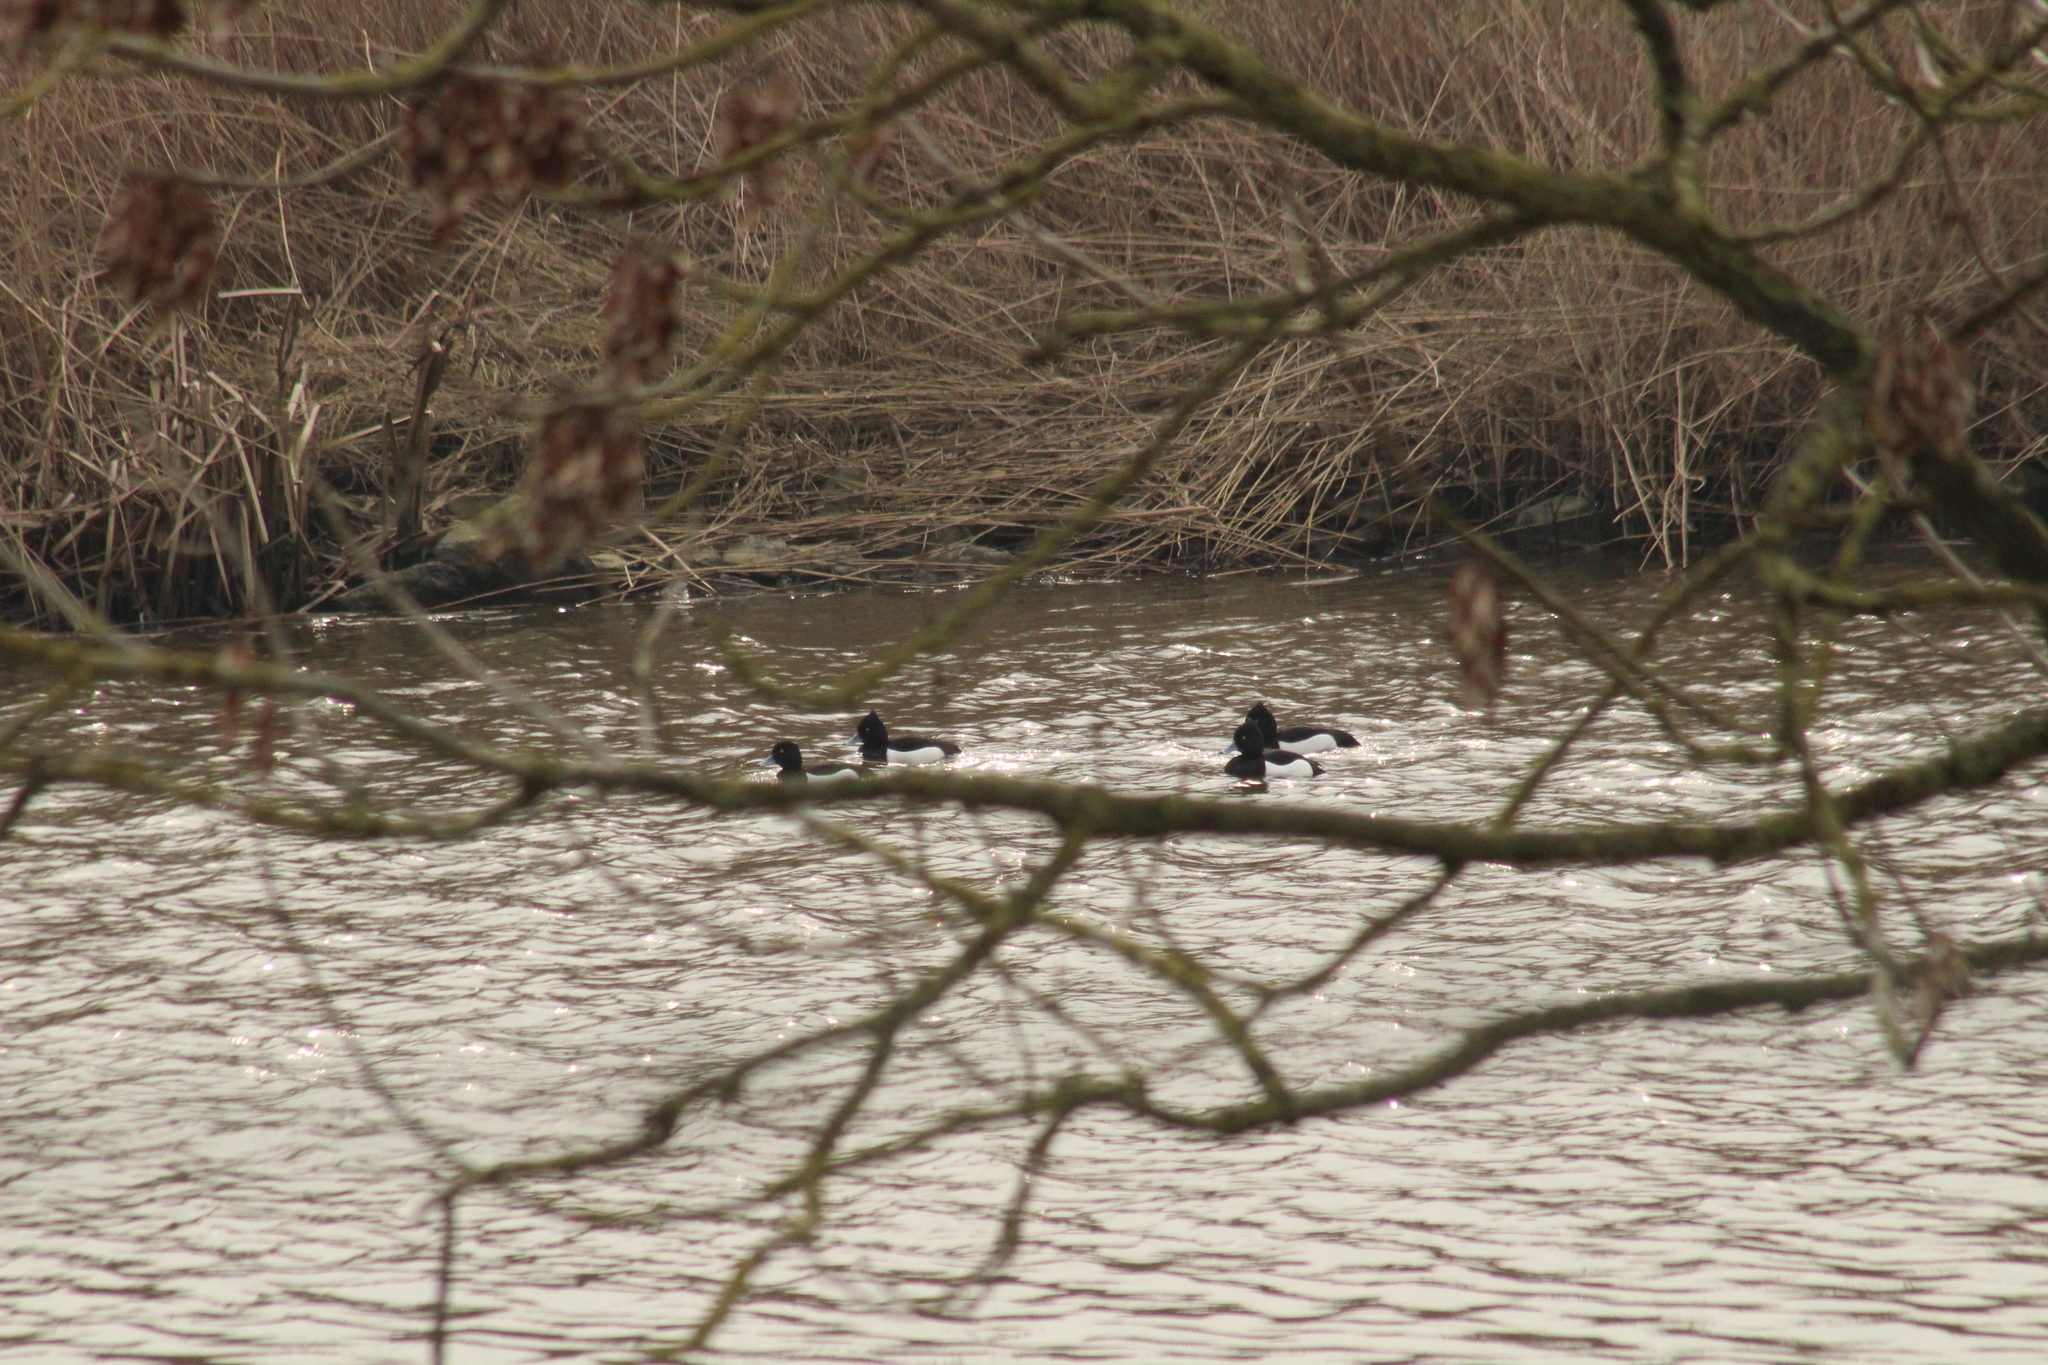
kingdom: Animalia
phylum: Chordata
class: Aves
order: Anseriformes
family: Anatidae
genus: Aythya
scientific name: Aythya fuligula
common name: Tufted duck
